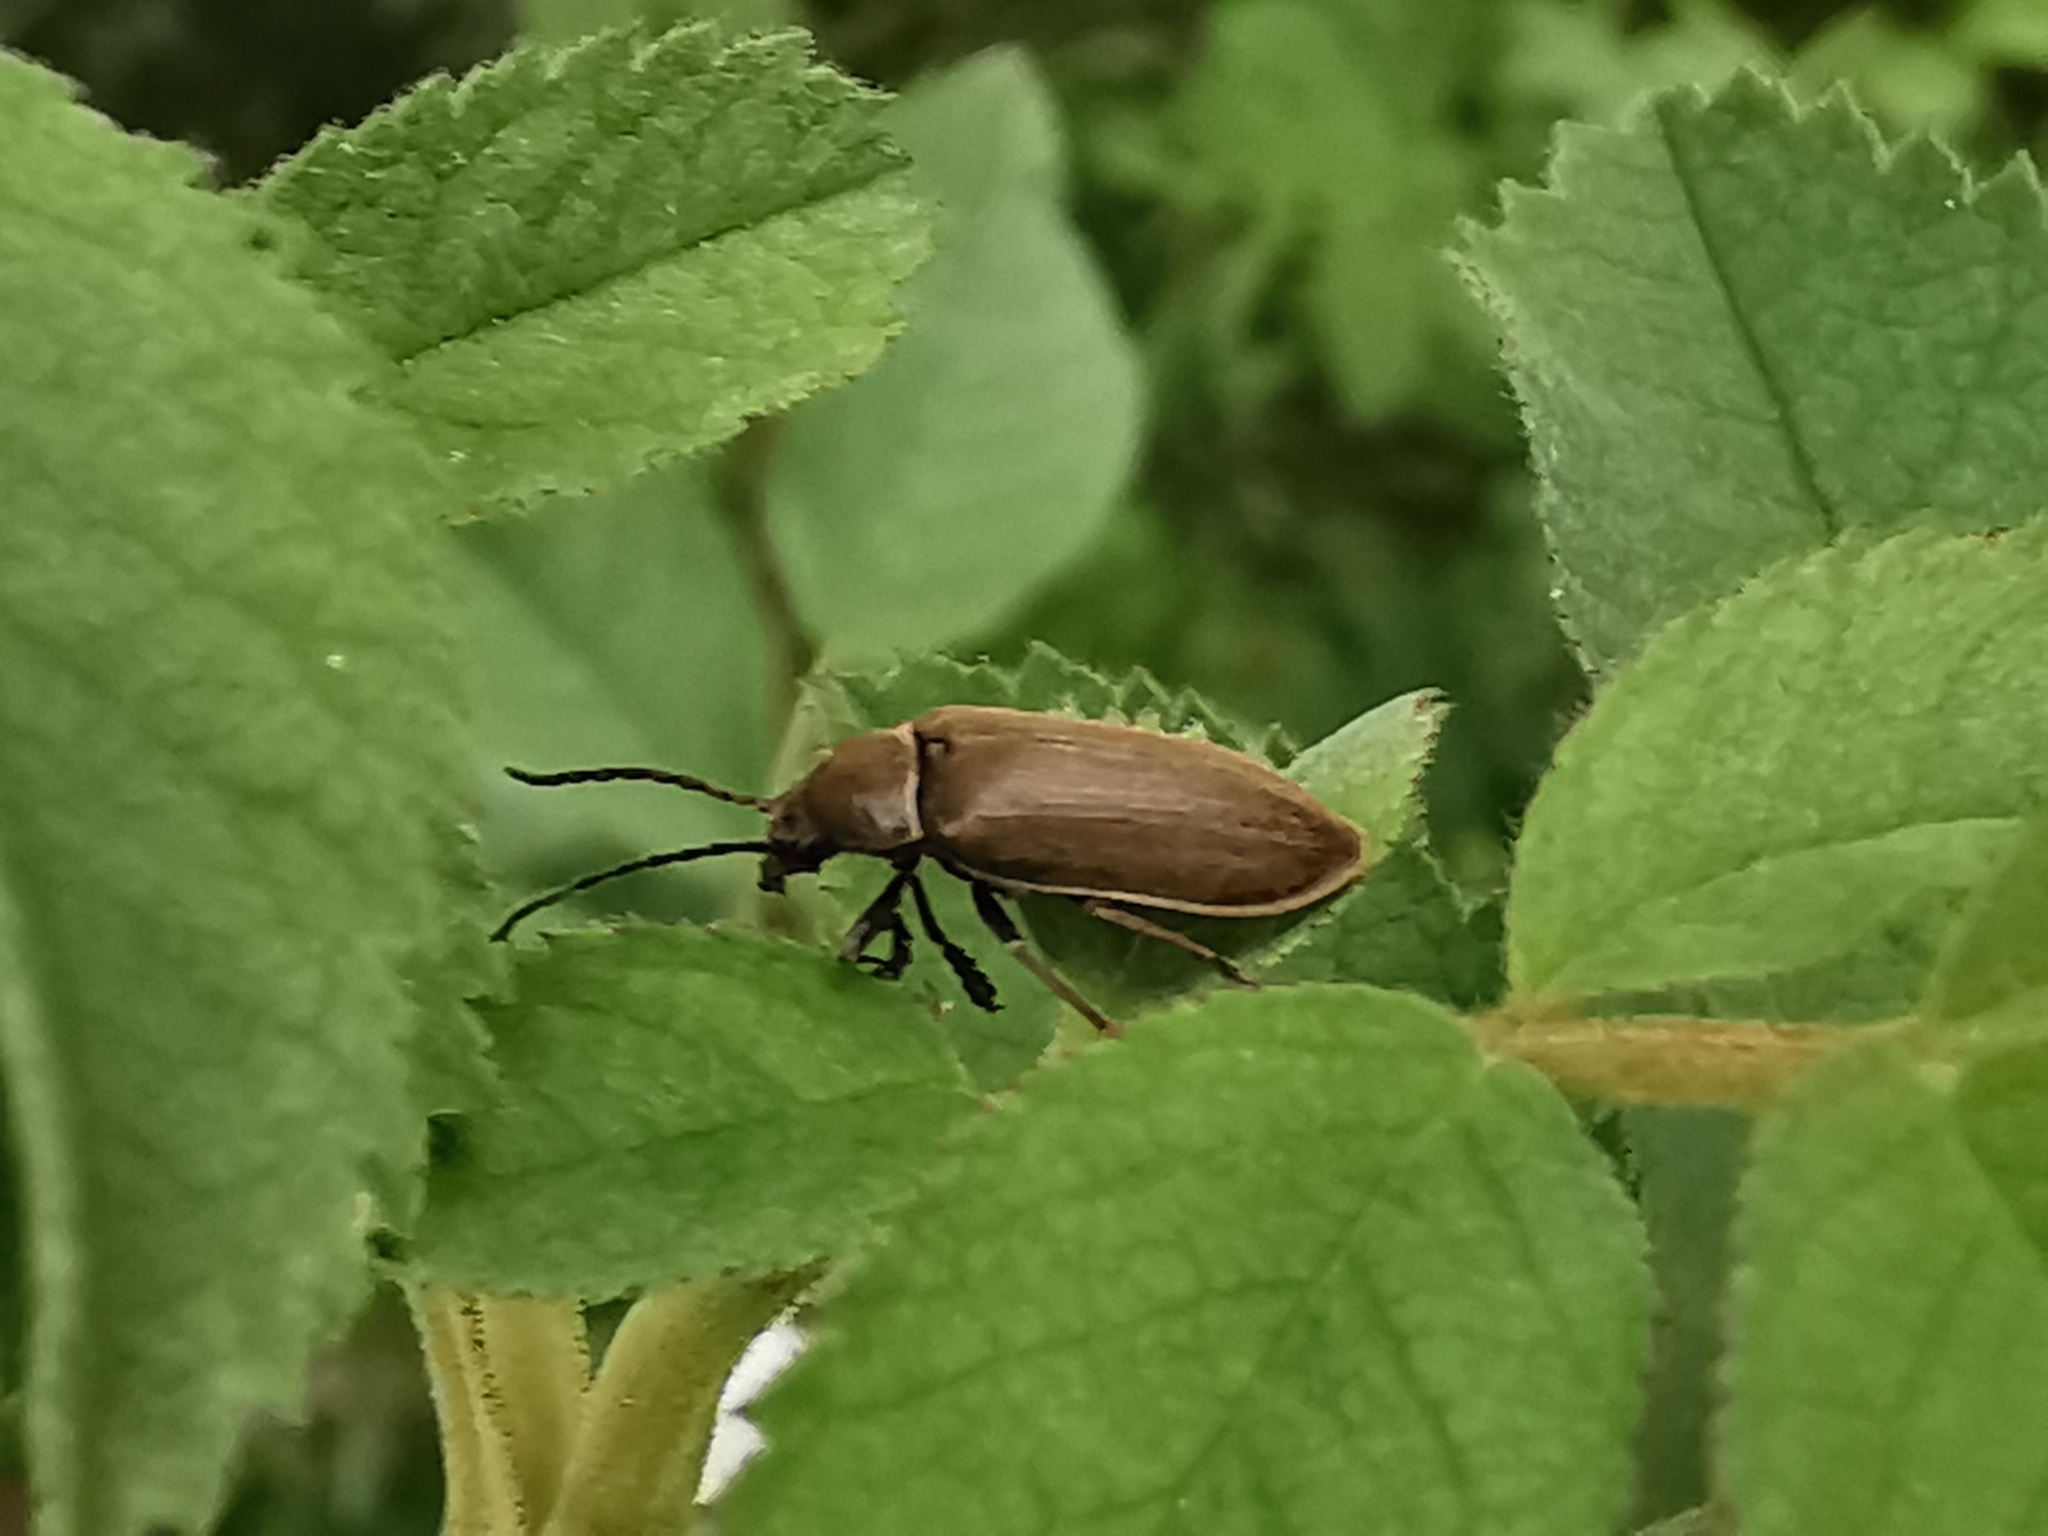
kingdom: Animalia
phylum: Arthropoda
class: Insecta
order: Coleoptera
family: Dascillidae
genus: Dascillus
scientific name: Dascillus cervinus
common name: Orchid beetle
